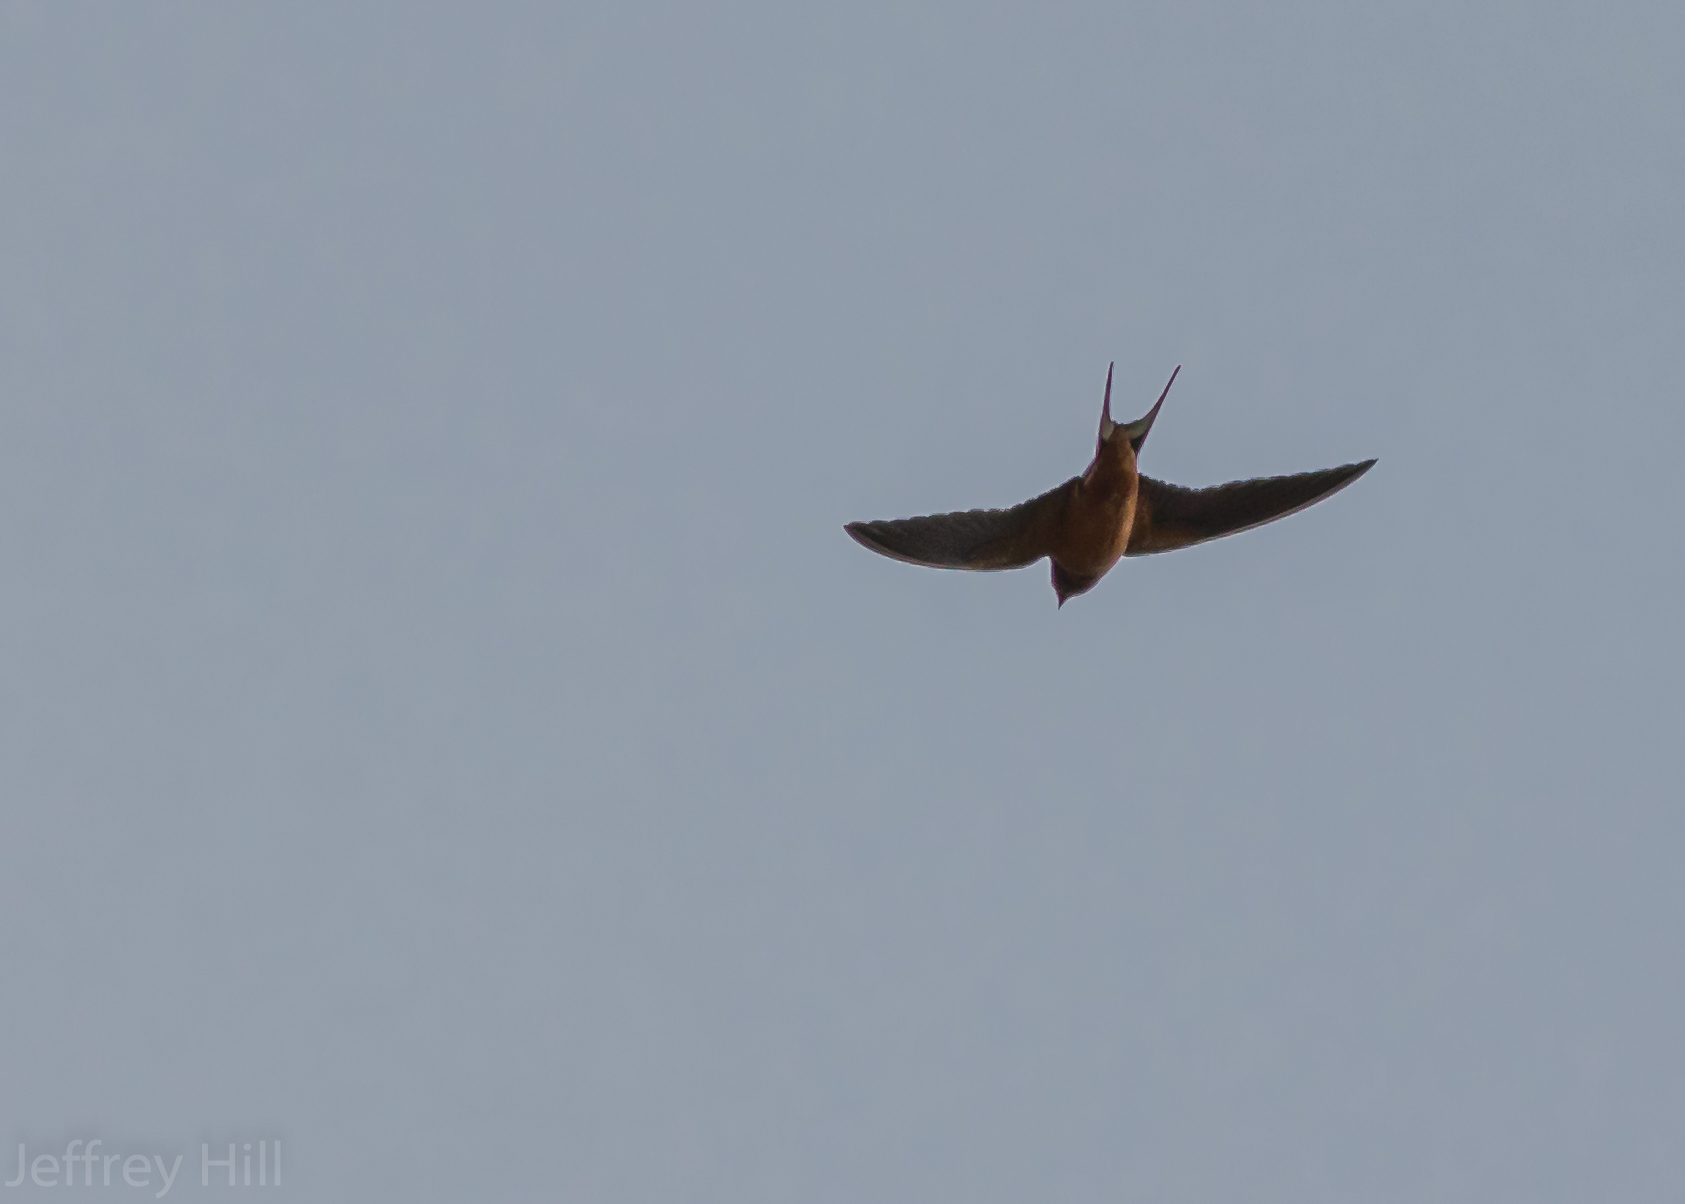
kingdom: Animalia
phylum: Chordata
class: Aves
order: Passeriformes
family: Hirundinidae
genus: Hirundo
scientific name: Hirundo rustica
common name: Barn swallow
